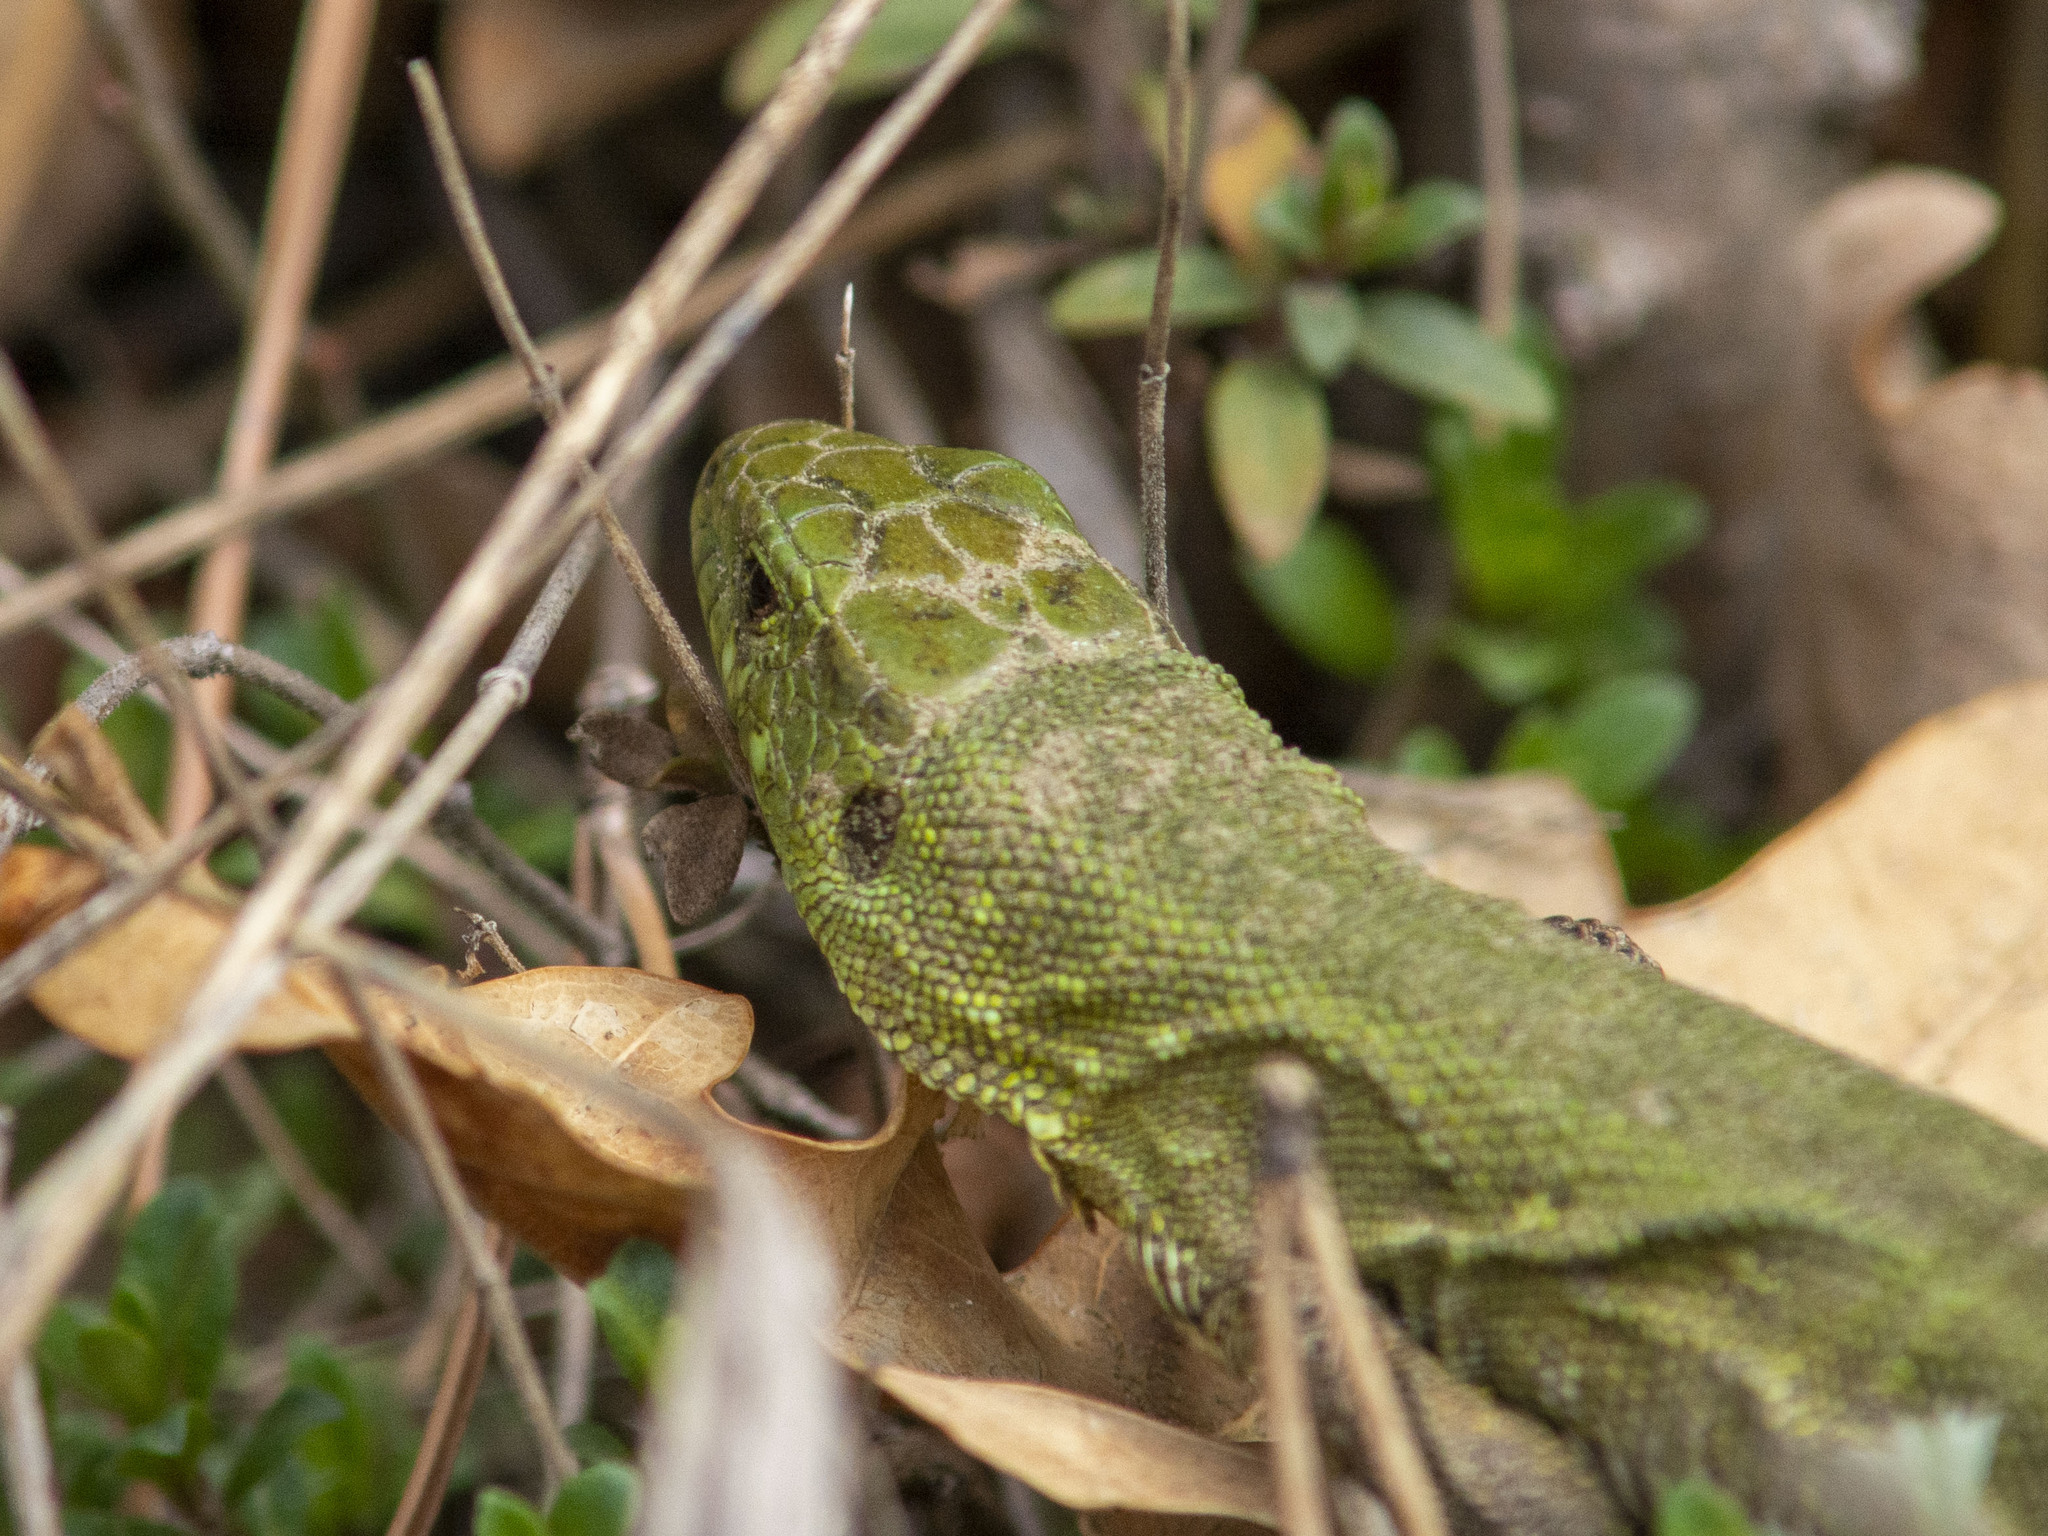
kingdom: Animalia
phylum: Chordata
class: Squamata
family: Lacertidae
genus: Lacerta
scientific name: Lacerta agilis
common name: Sand lizard
